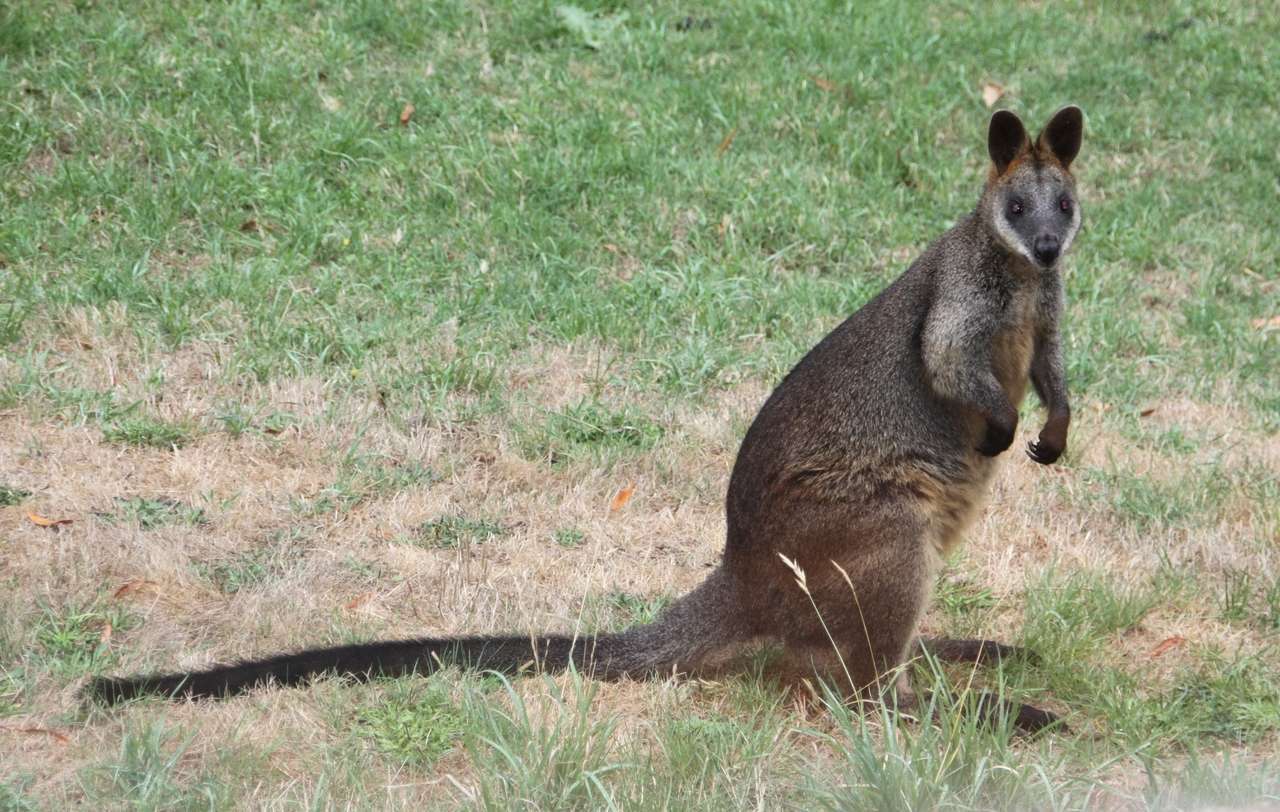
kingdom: Animalia
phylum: Chordata
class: Mammalia
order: Diprotodontia
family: Macropodidae
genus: Wallabia
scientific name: Wallabia bicolor
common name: Swamp wallaby
